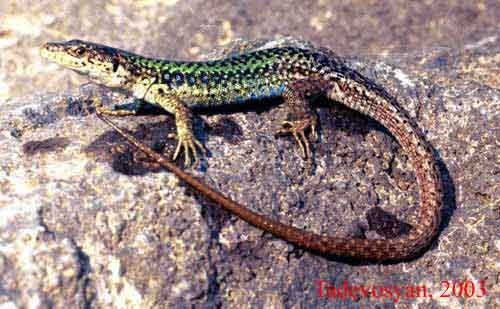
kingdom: Animalia
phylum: Chordata
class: Squamata
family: Lacertidae
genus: Darevskia
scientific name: Darevskia valentini
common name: Valentin's lizard
